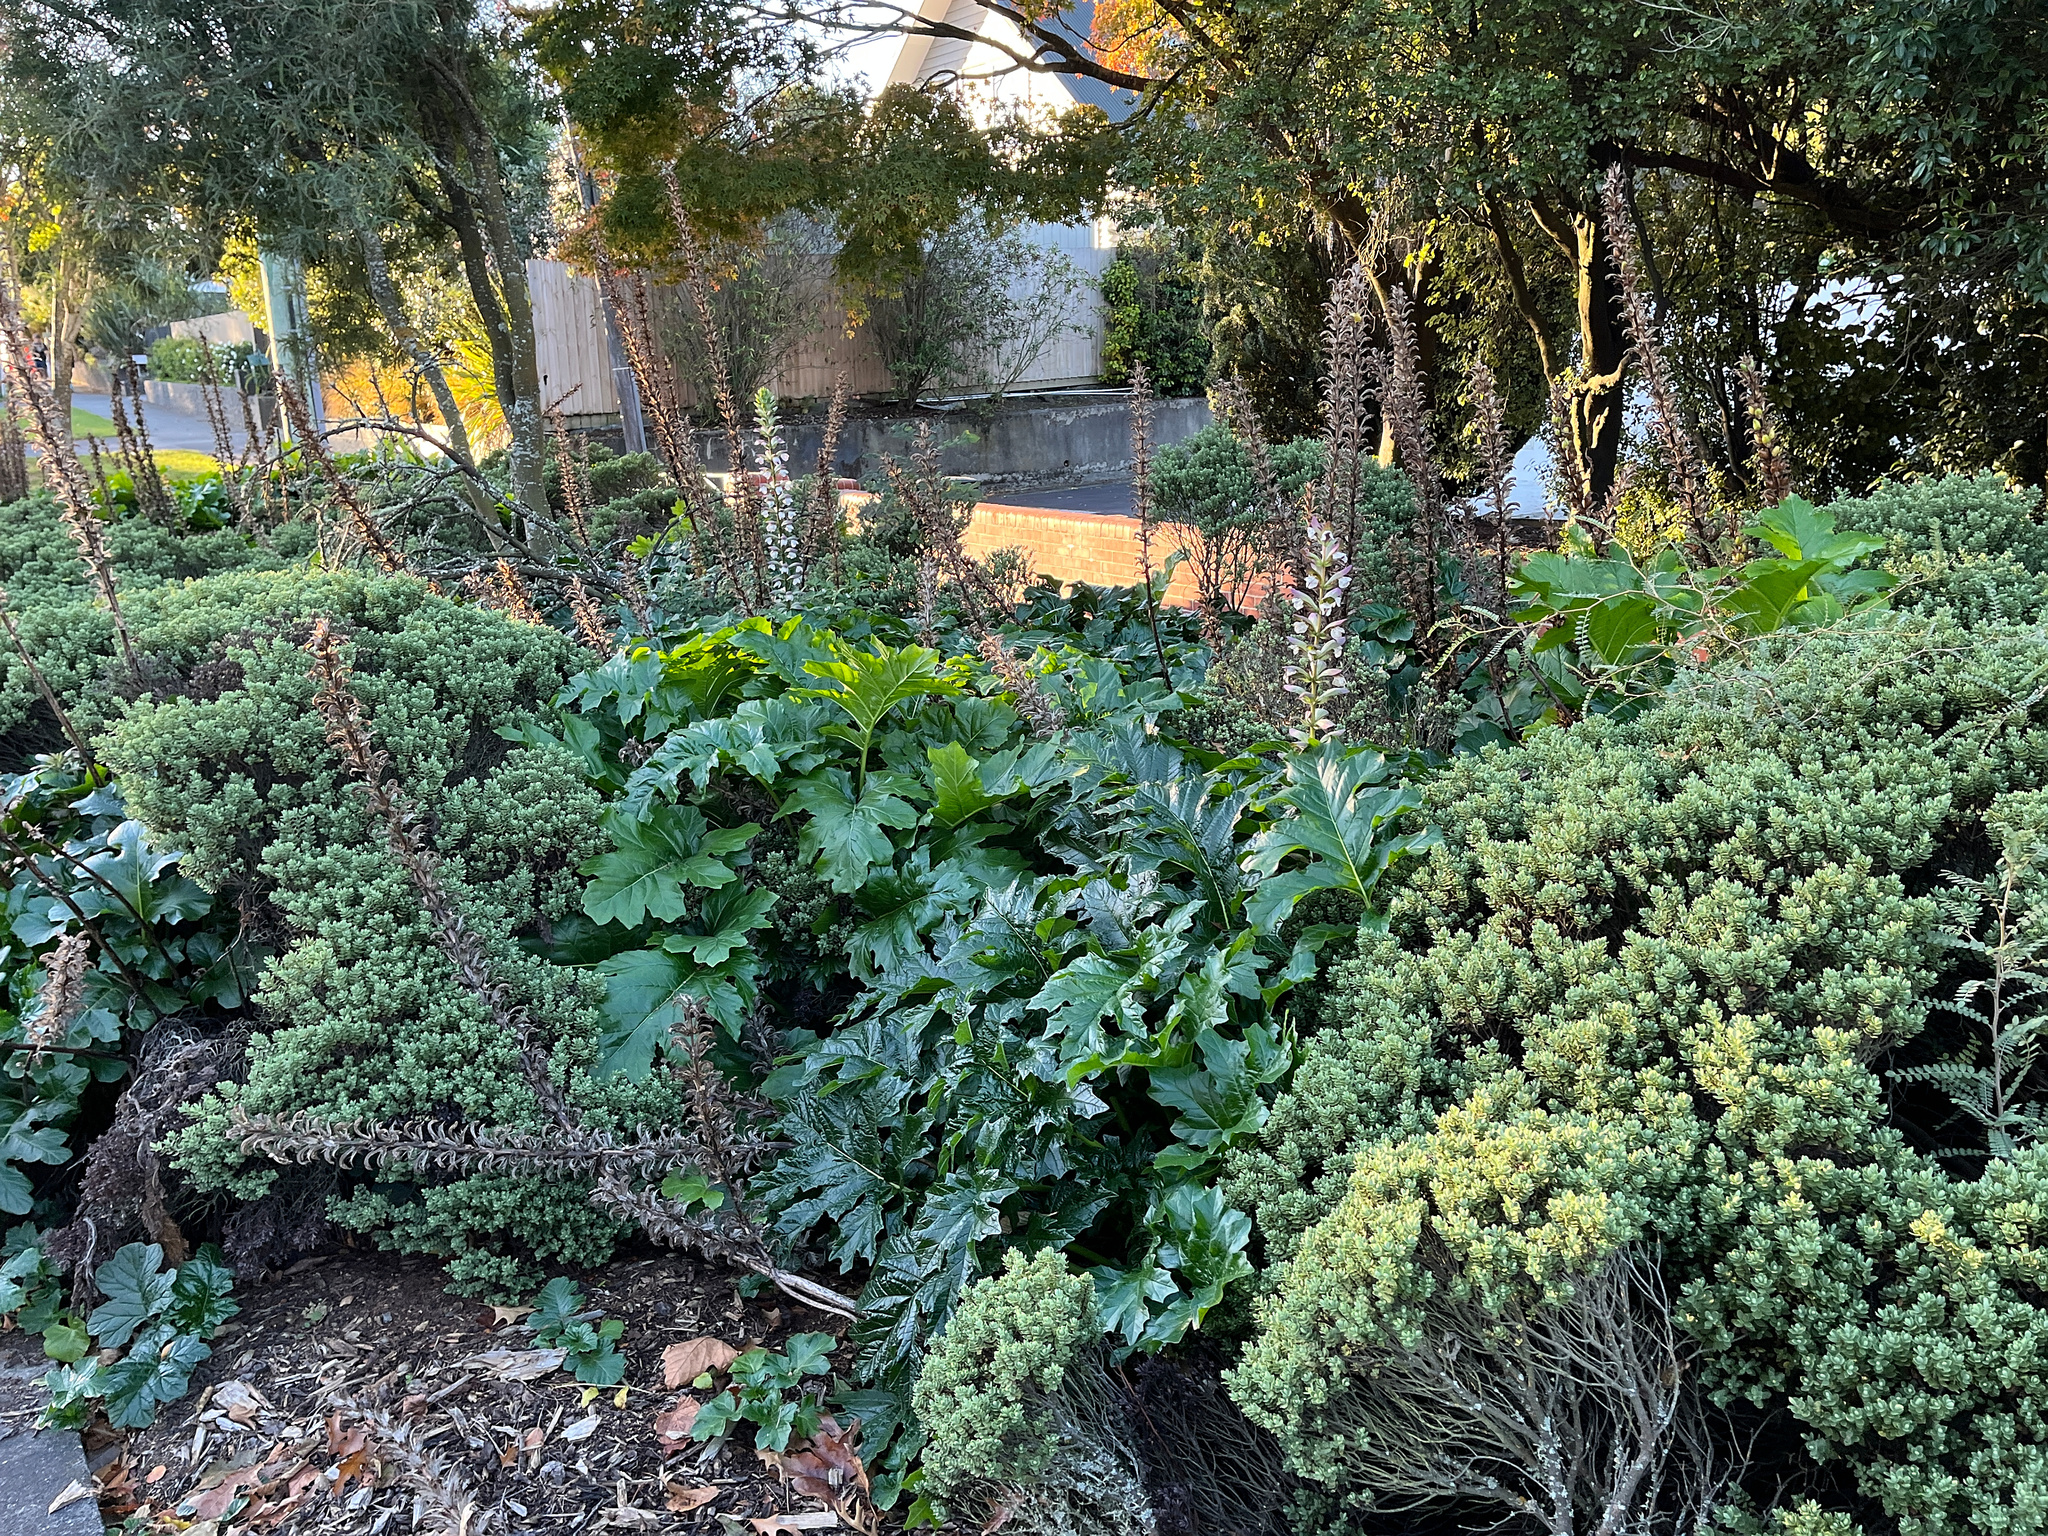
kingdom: Plantae
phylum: Tracheophyta
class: Magnoliopsida
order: Lamiales
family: Acanthaceae
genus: Acanthus
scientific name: Acanthus mollis
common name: Bear's-breech
